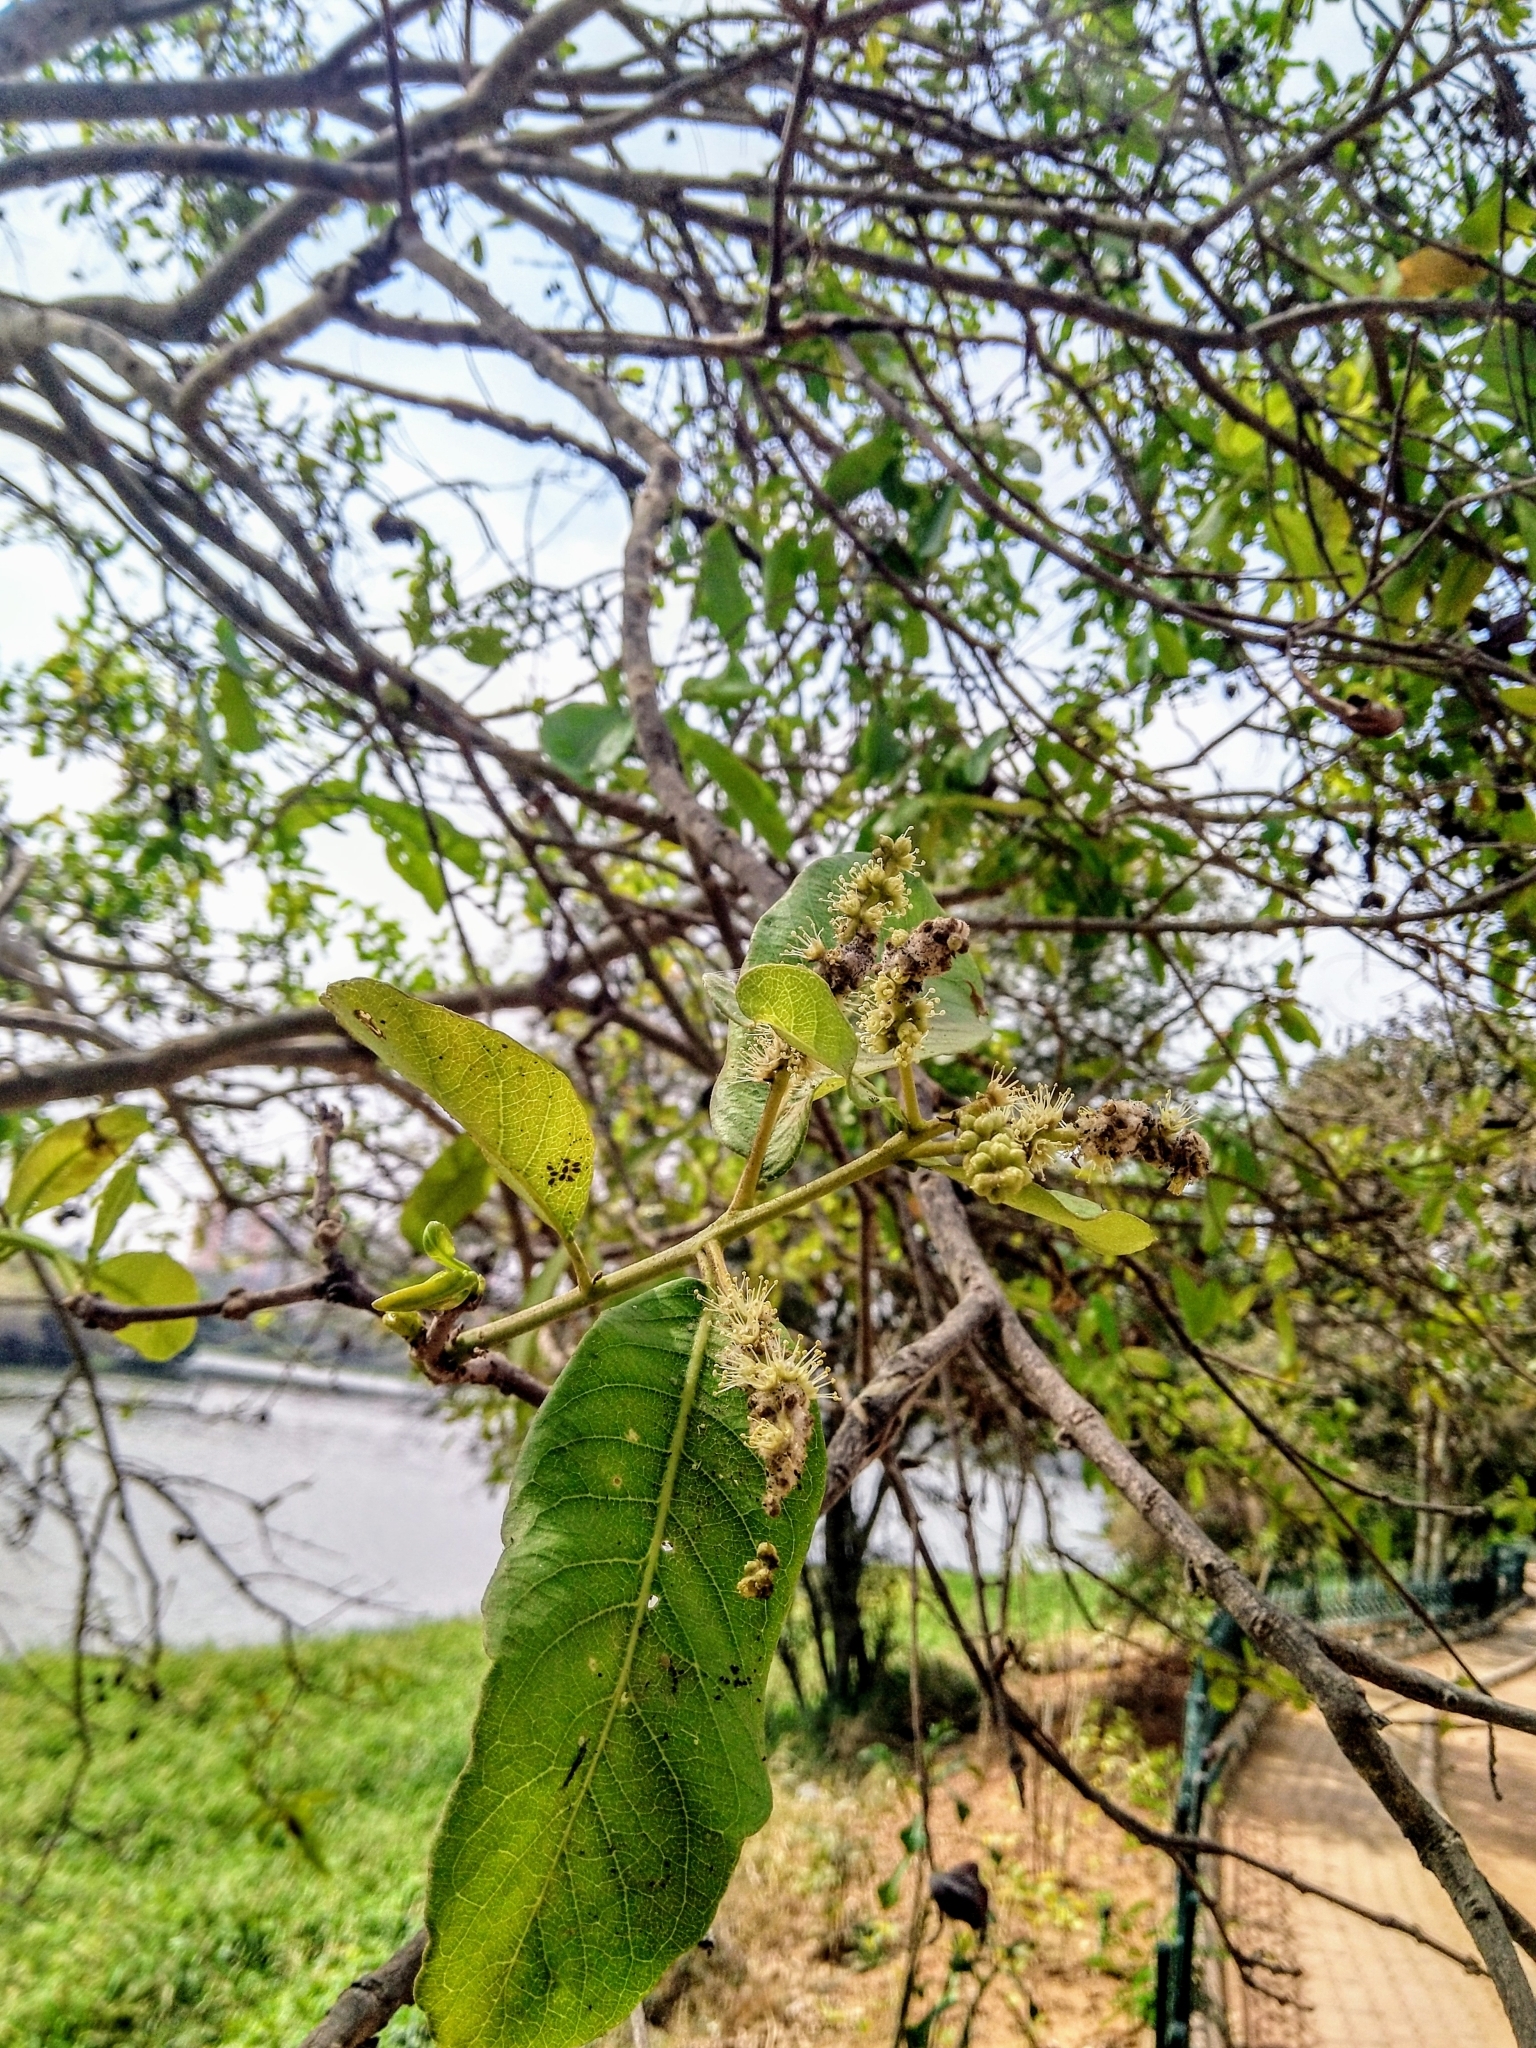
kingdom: Plantae
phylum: Tracheophyta
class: Magnoliopsida
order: Myrtales
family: Combretaceae
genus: Terminalia
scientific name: Terminalia arjuna
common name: Arjun
